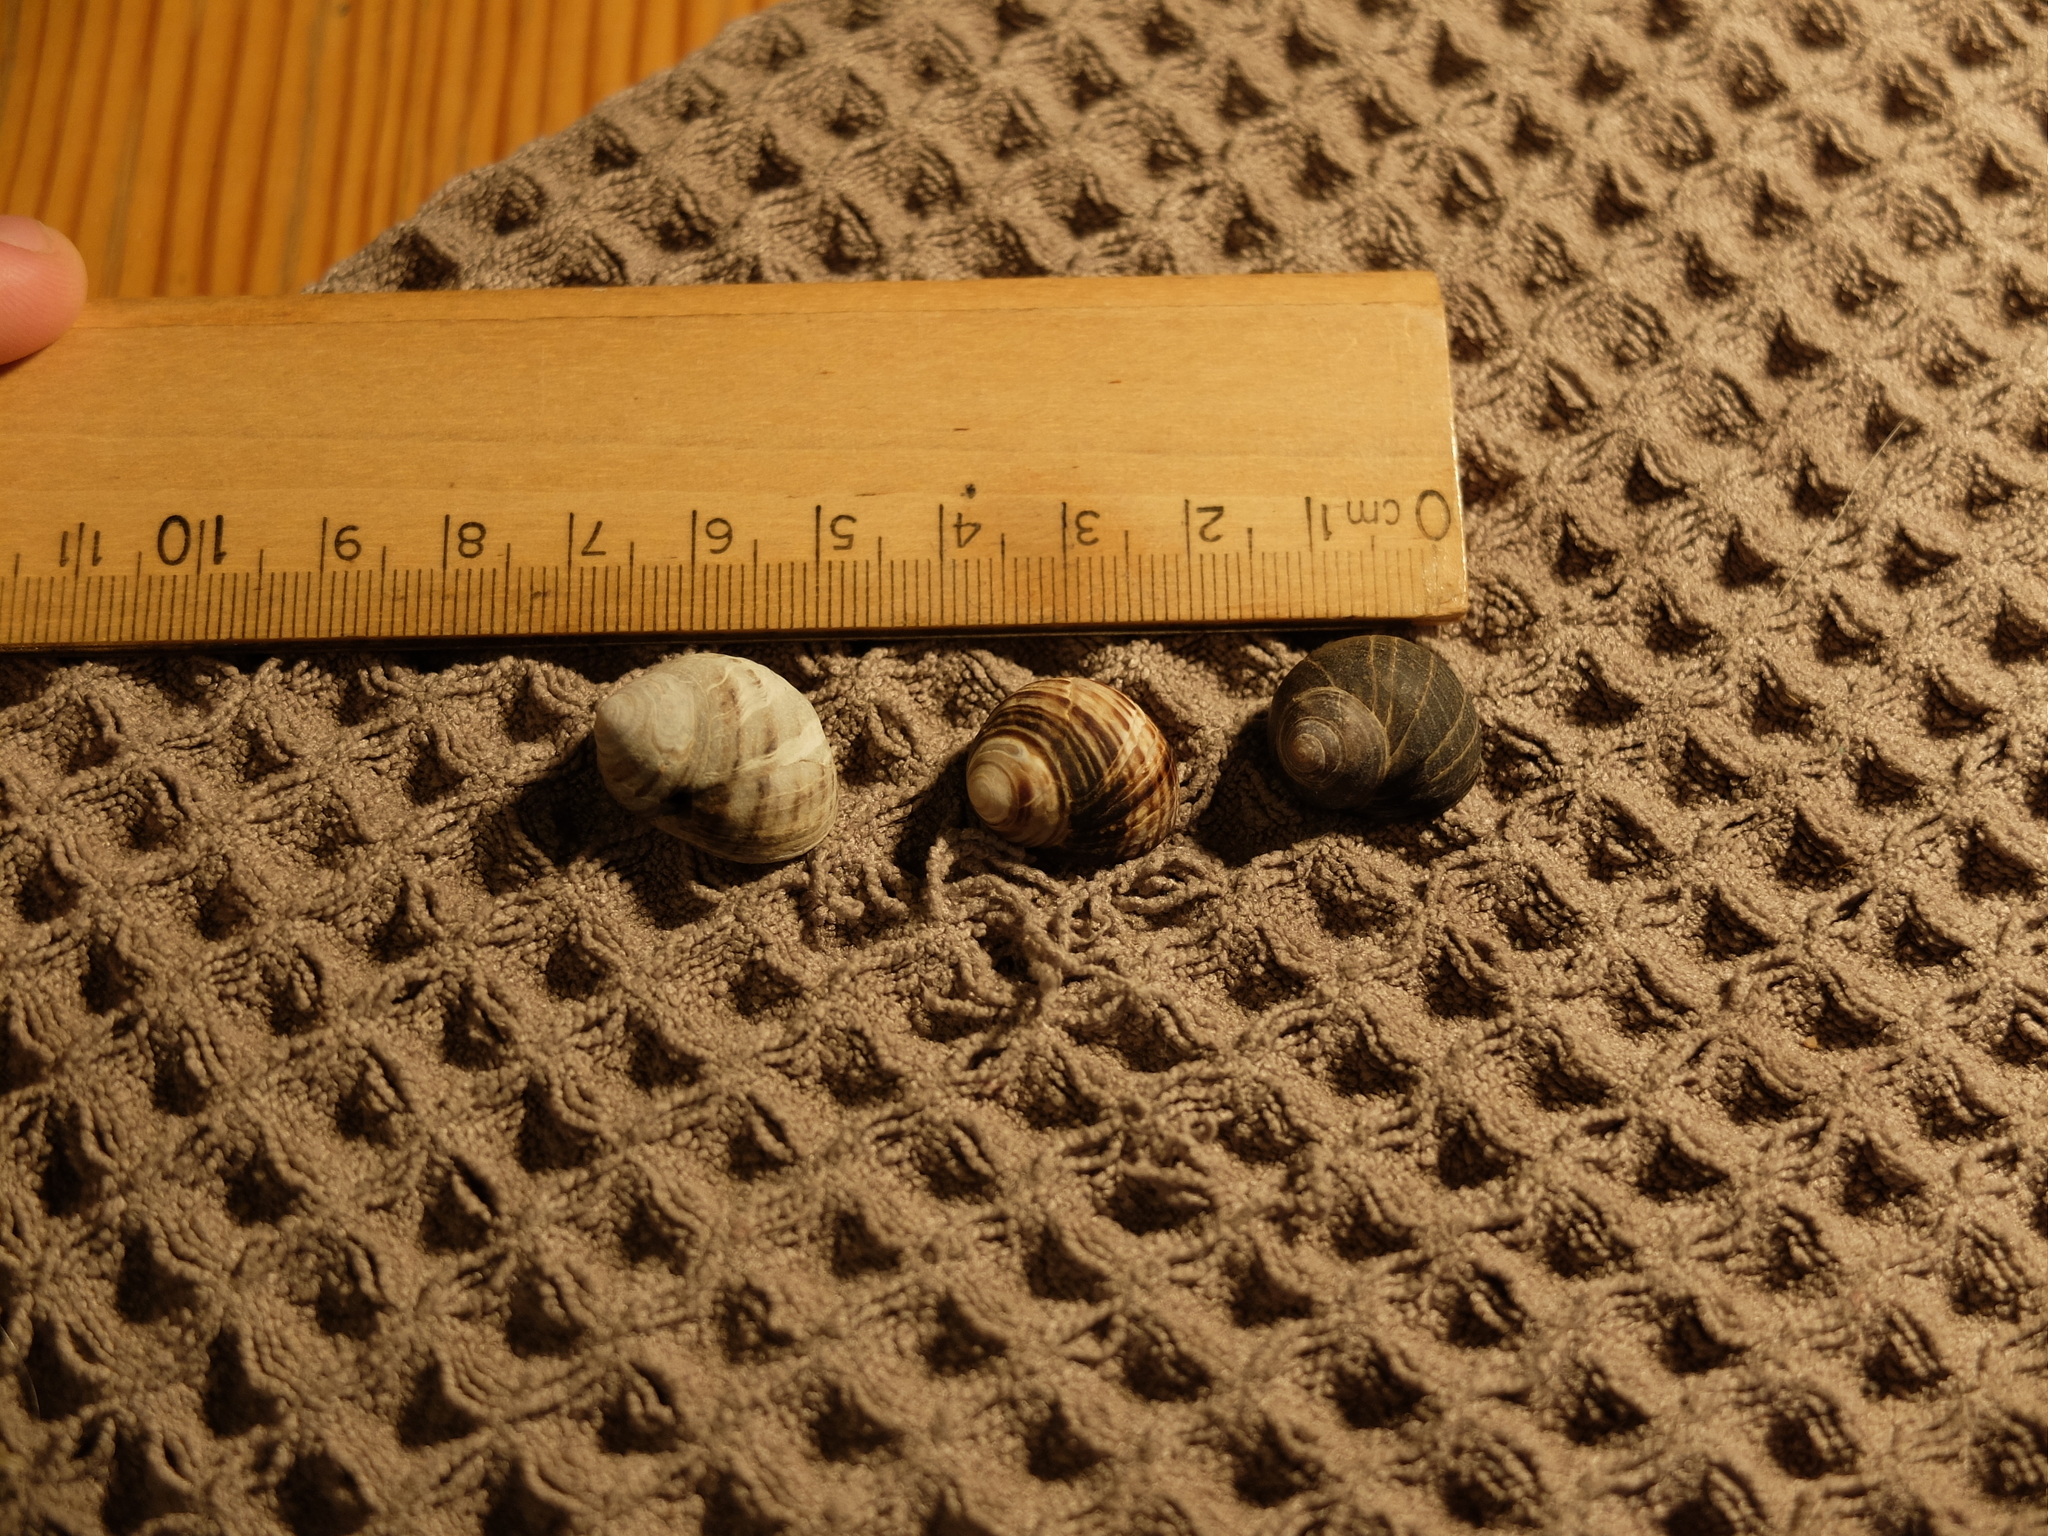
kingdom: Animalia
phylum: Mollusca
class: Gastropoda
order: Littorinimorpha
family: Littorinidae
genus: Littorina
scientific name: Littorina littorea
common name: Common periwinkle
